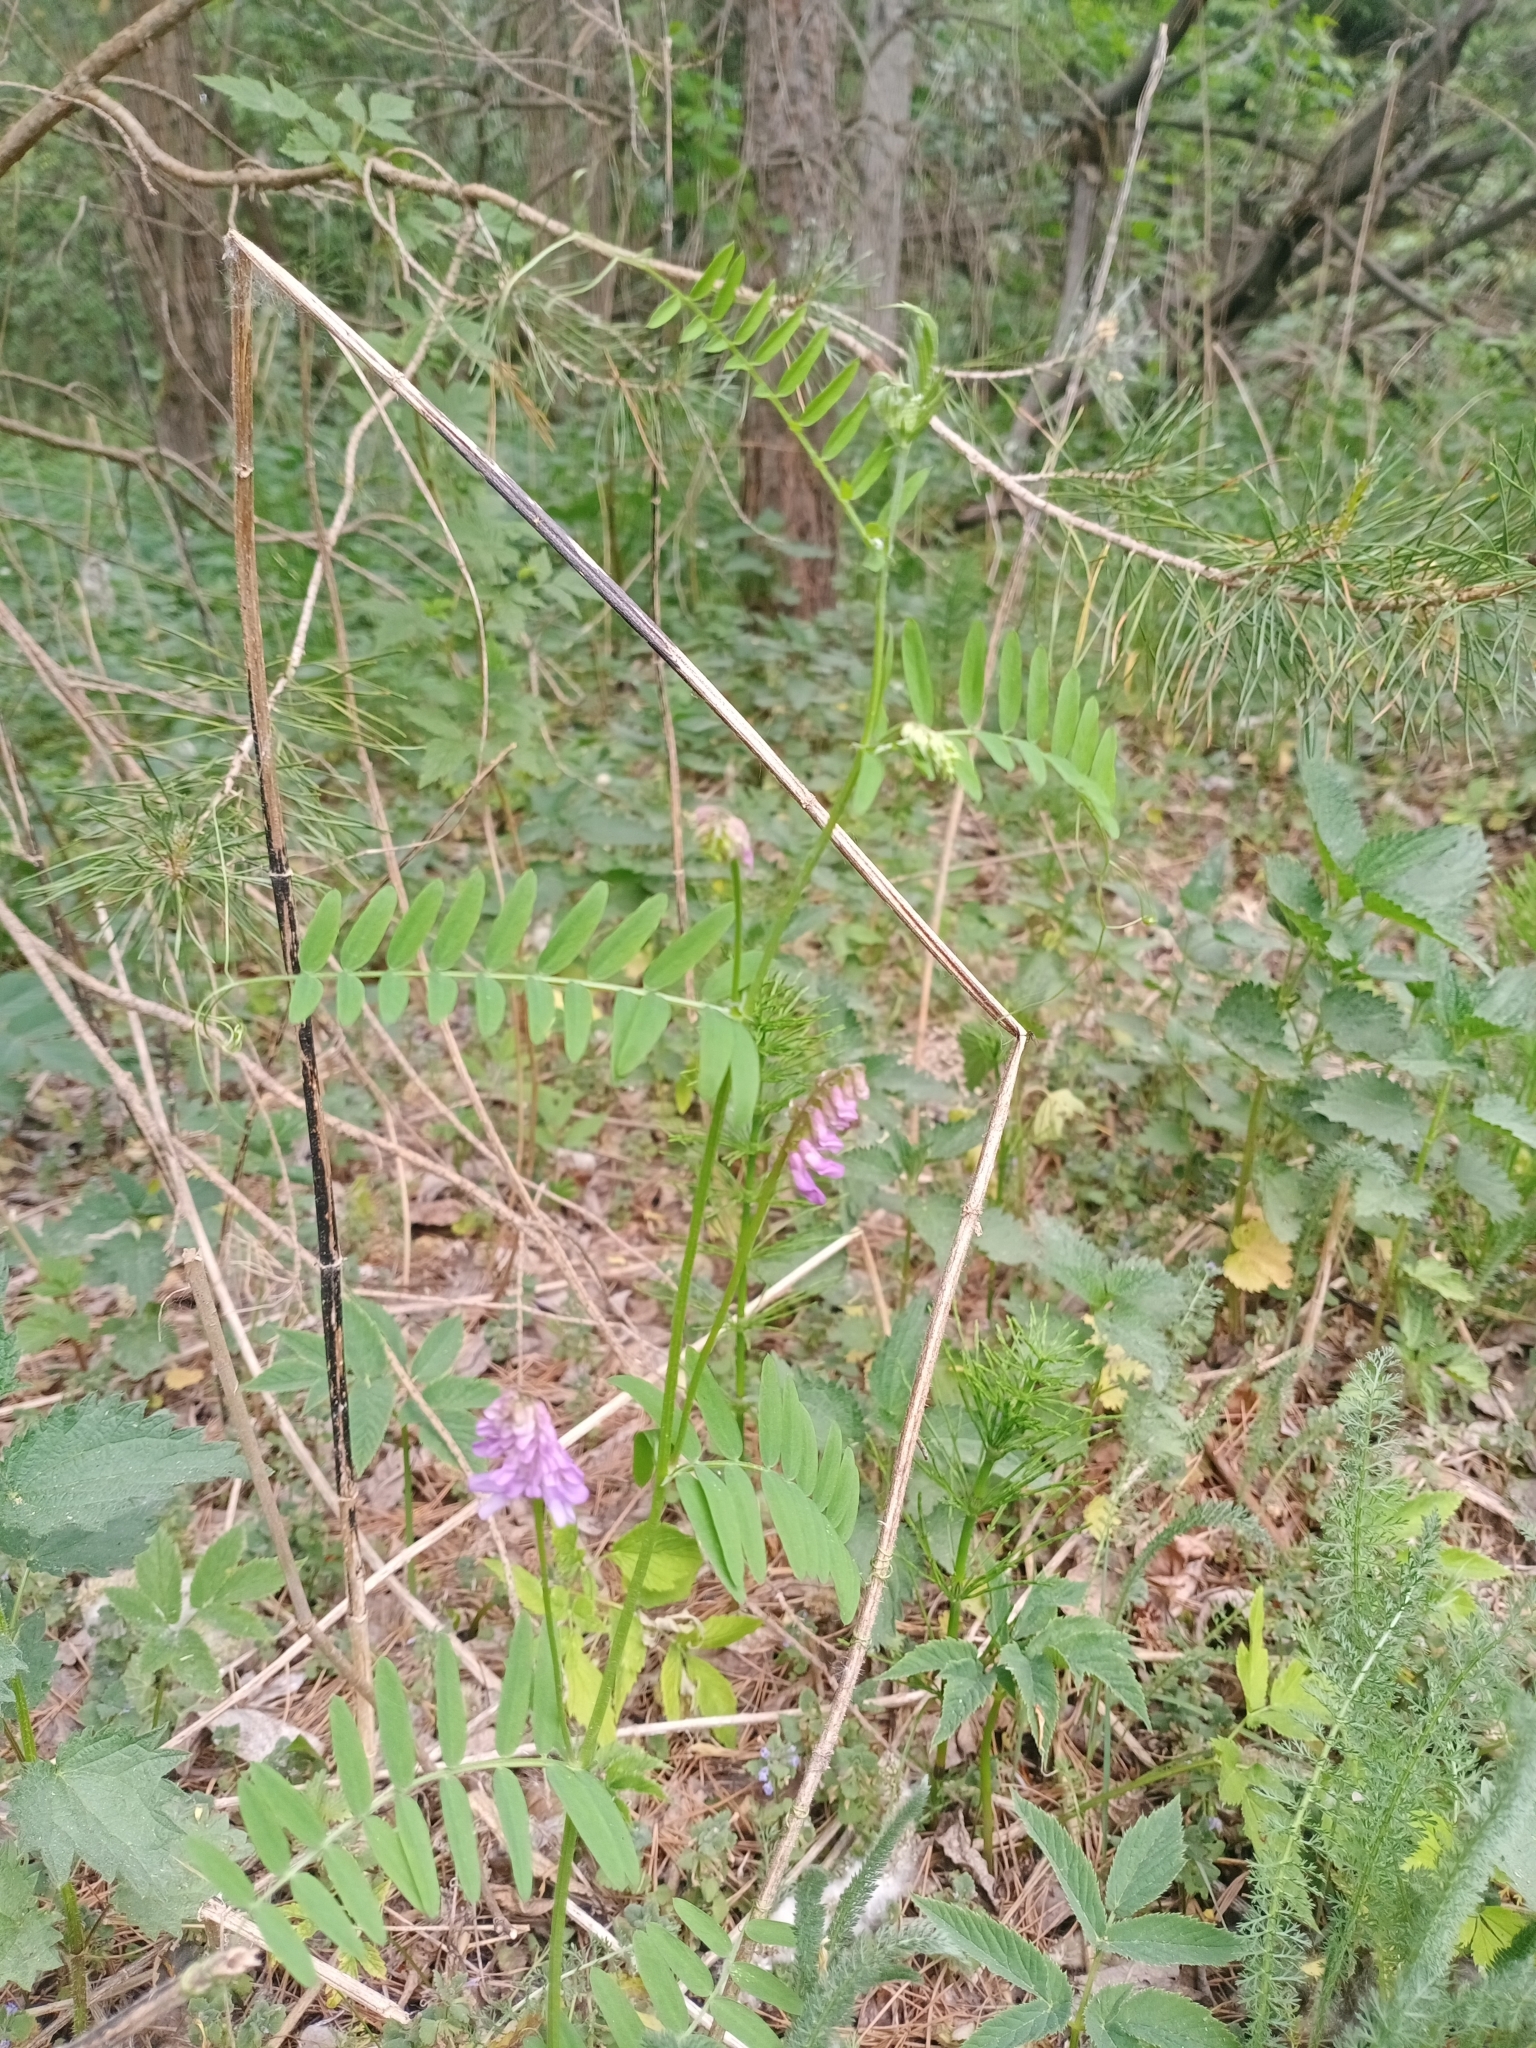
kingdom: Plantae
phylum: Tracheophyta
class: Magnoliopsida
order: Fabales
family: Fabaceae
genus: Vicia
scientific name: Vicia cracca
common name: Bird vetch
